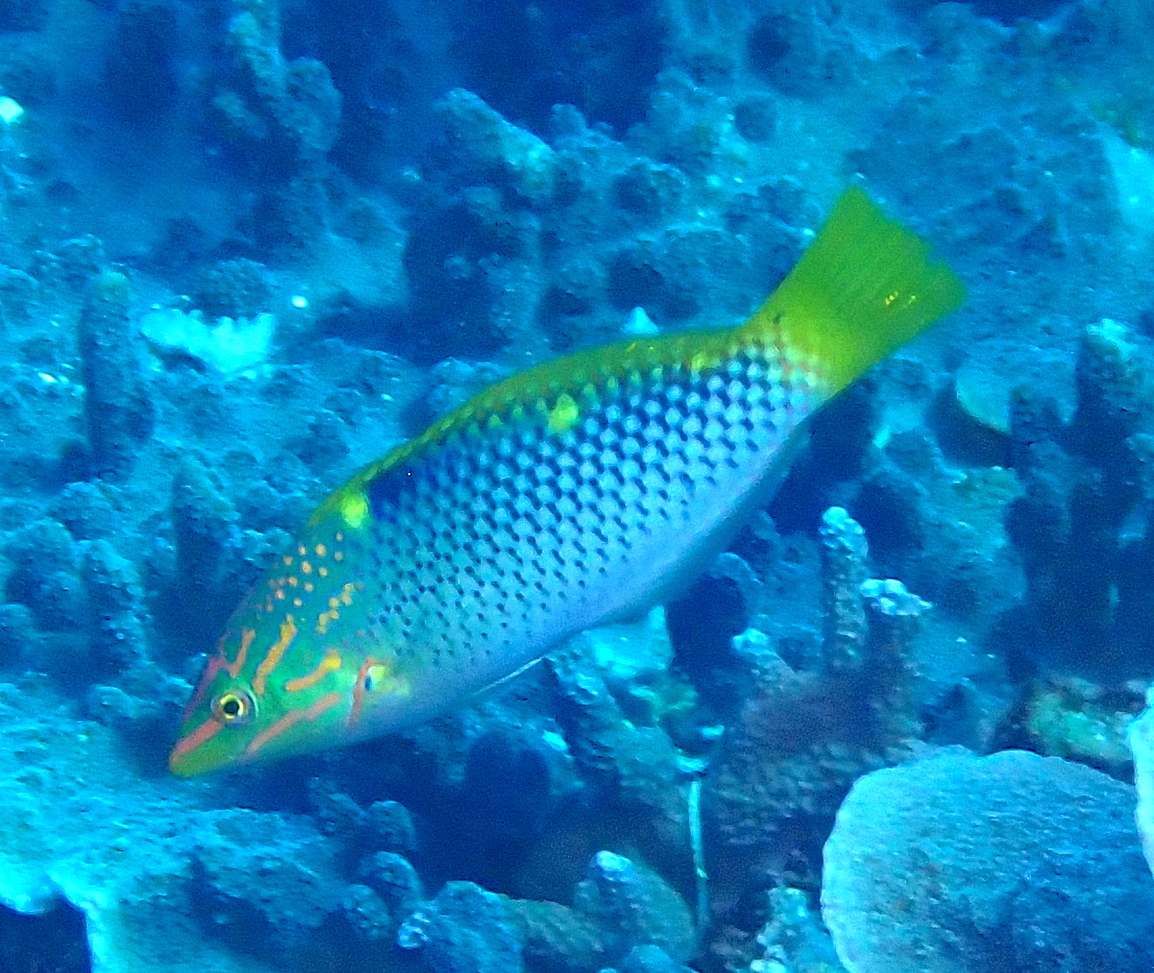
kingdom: Animalia
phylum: Chordata
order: Perciformes
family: Labridae
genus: Halichoeres
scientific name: Halichoeres hortulanus
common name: Checkerboard wrasse
